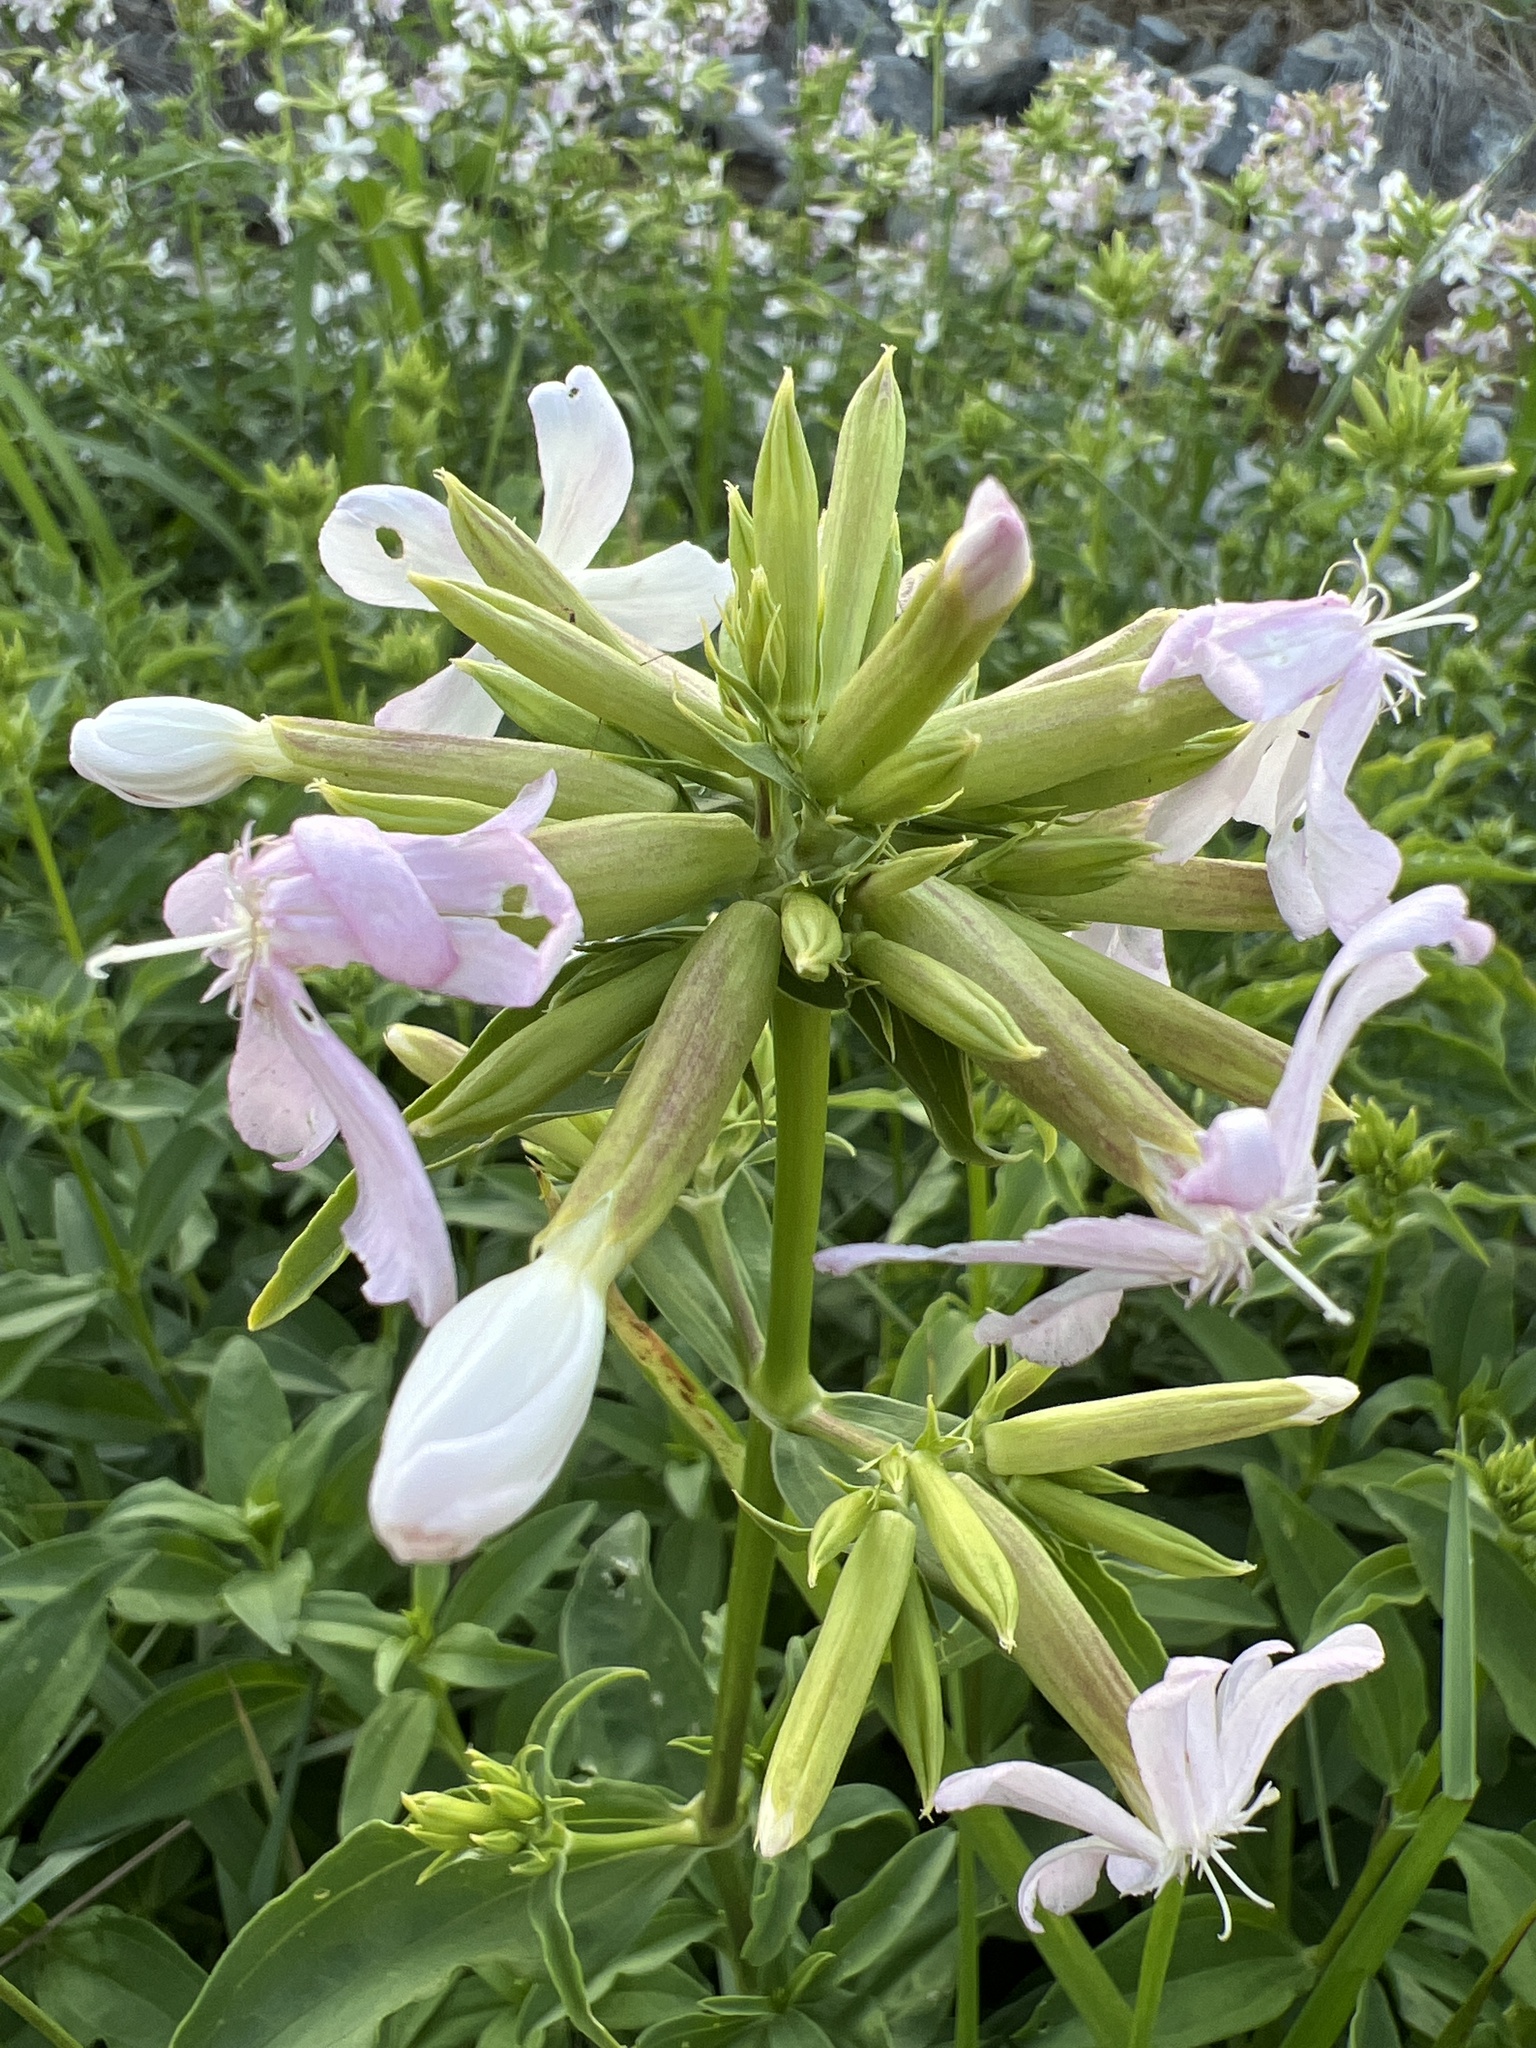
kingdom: Plantae
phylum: Tracheophyta
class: Magnoliopsida
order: Caryophyllales
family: Caryophyllaceae
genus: Saponaria
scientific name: Saponaria officinalis
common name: Soapwort
